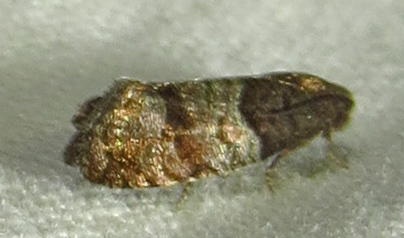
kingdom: Animalia
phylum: Arthropoda
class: Insecta
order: Lepidoptera
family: Tortricidae
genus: Larisa
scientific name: Larisa subsolana
